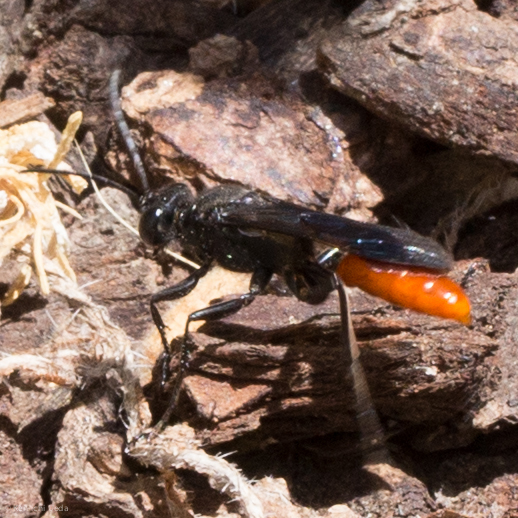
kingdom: Animalia
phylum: Arthropoda
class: Insecta
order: Hymenoptera
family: Sphecidae
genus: Sphex
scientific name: Sphex lucae
